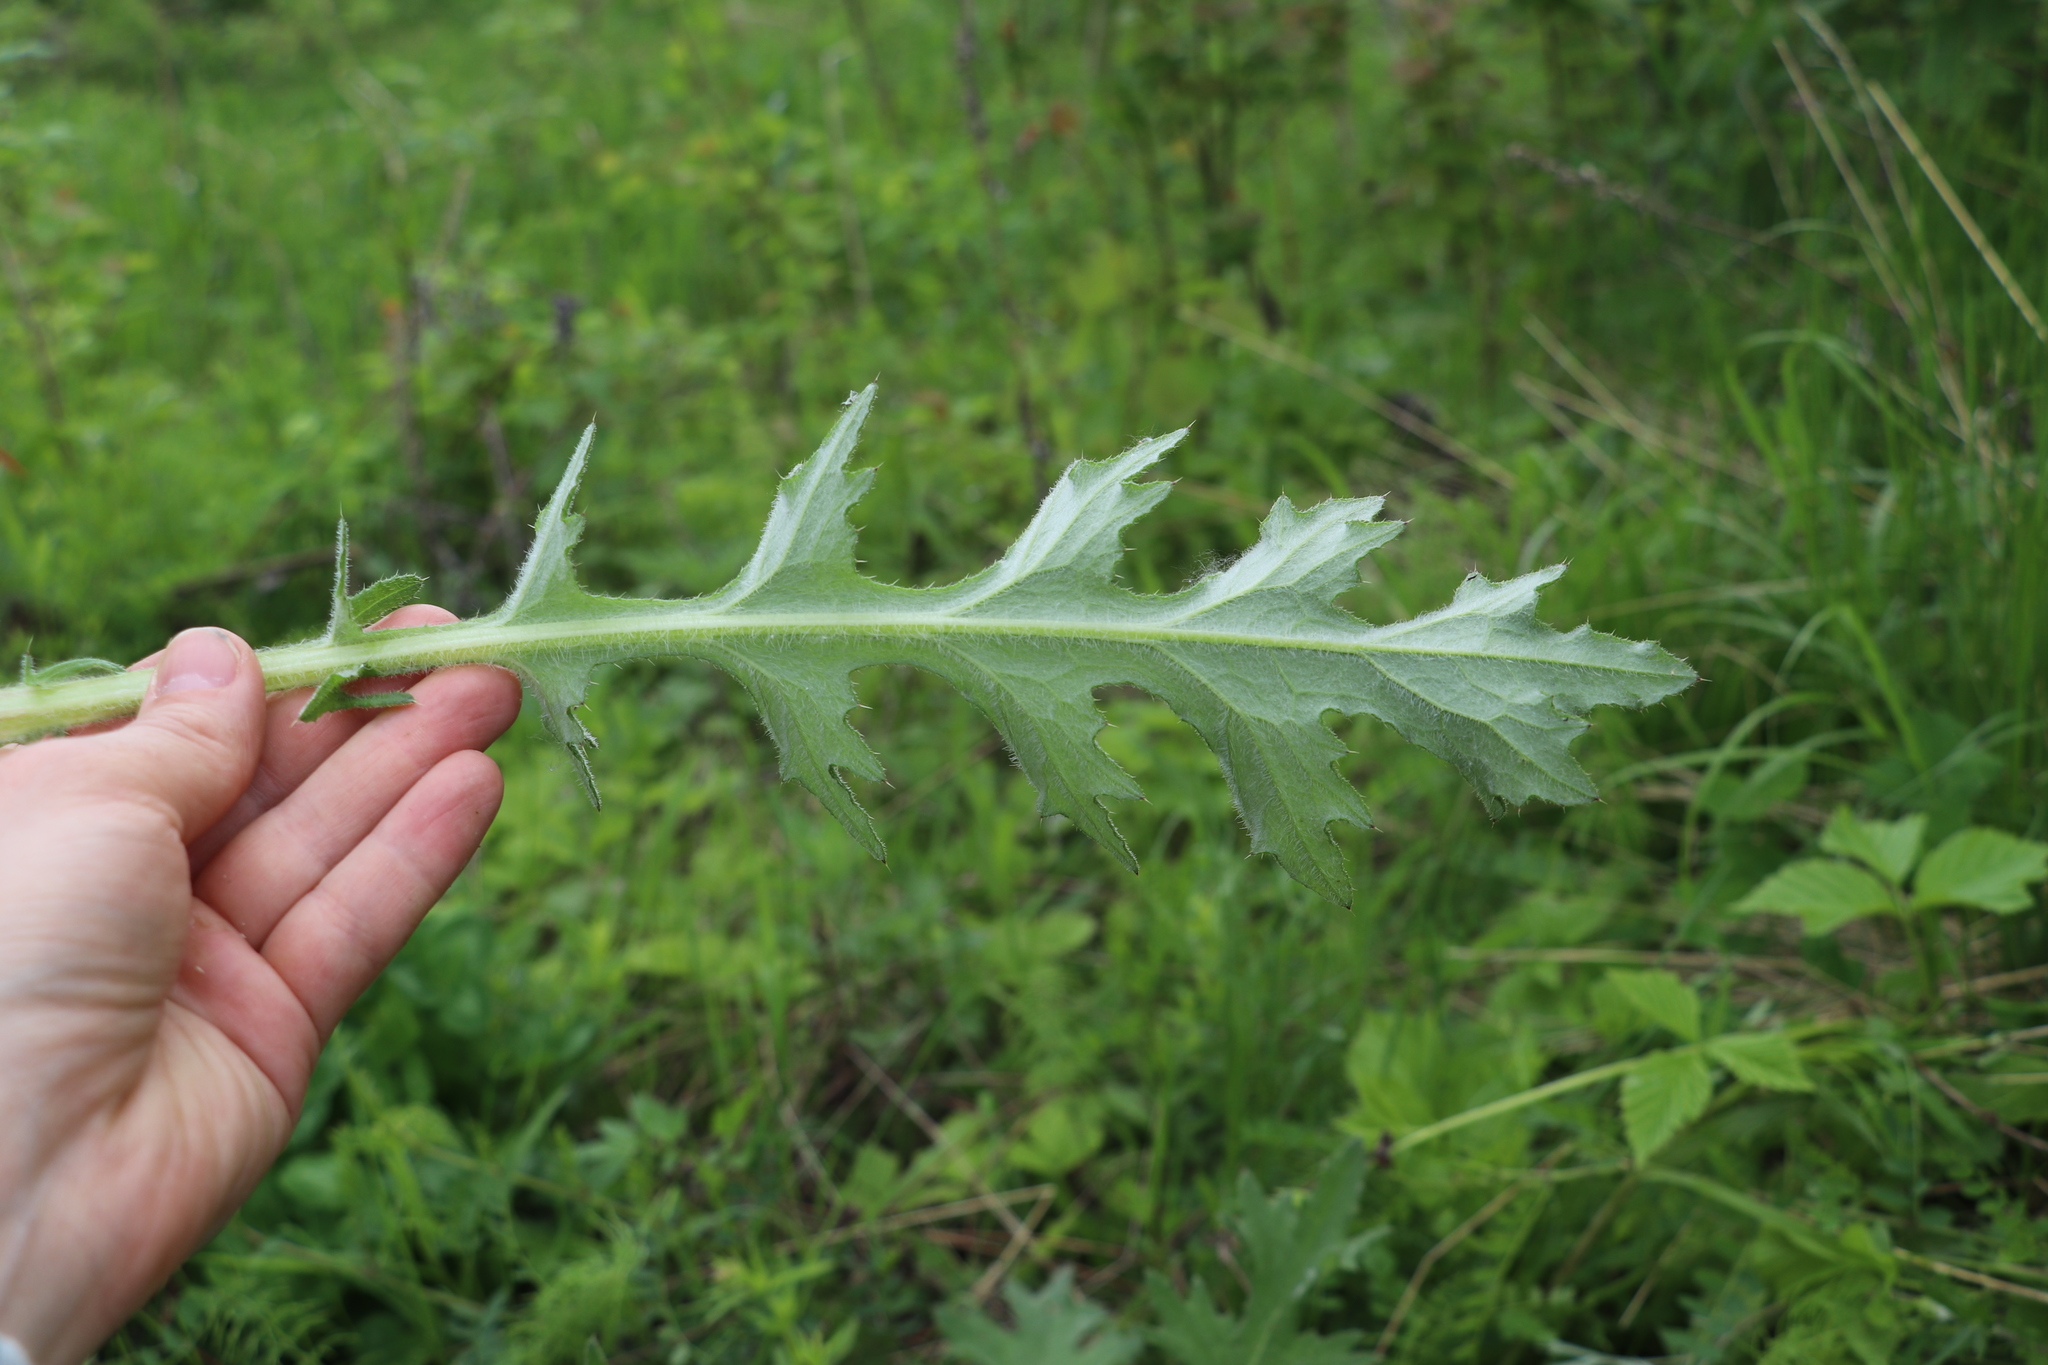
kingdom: Plantae
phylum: Tracheophyta
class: Magnoliopsida
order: Asterales
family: Asteraceae
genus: Cirsium
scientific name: Cirsium vulgare
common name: Bull thistle
